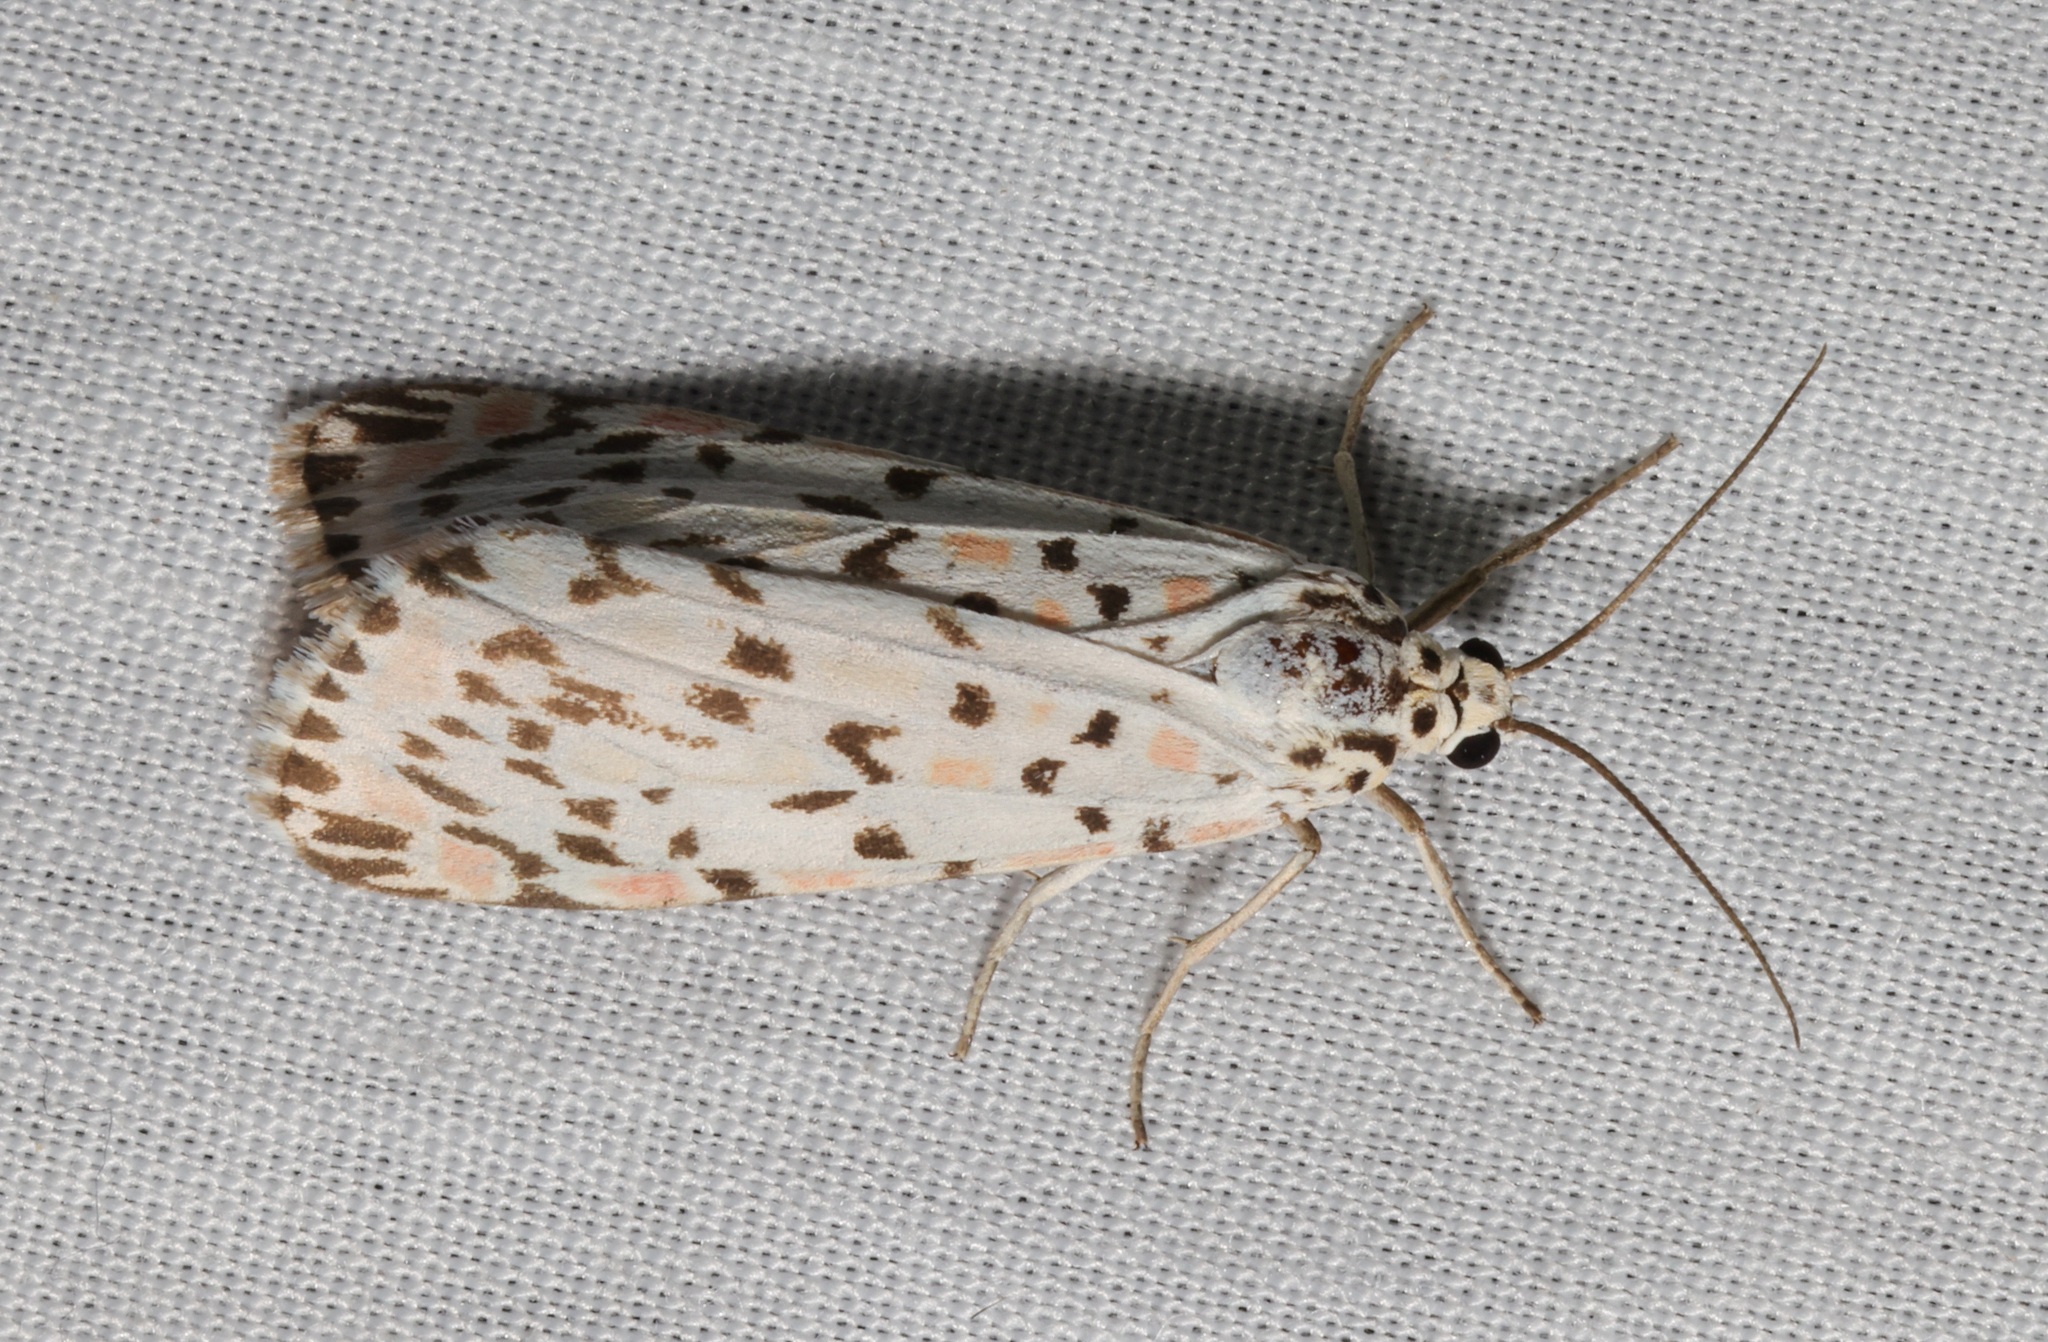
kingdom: Animalia
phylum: Arthropoda
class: Insecta
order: Lepidoptera
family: Erebidae
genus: Utetheisa
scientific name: Utetheisa lotrix
